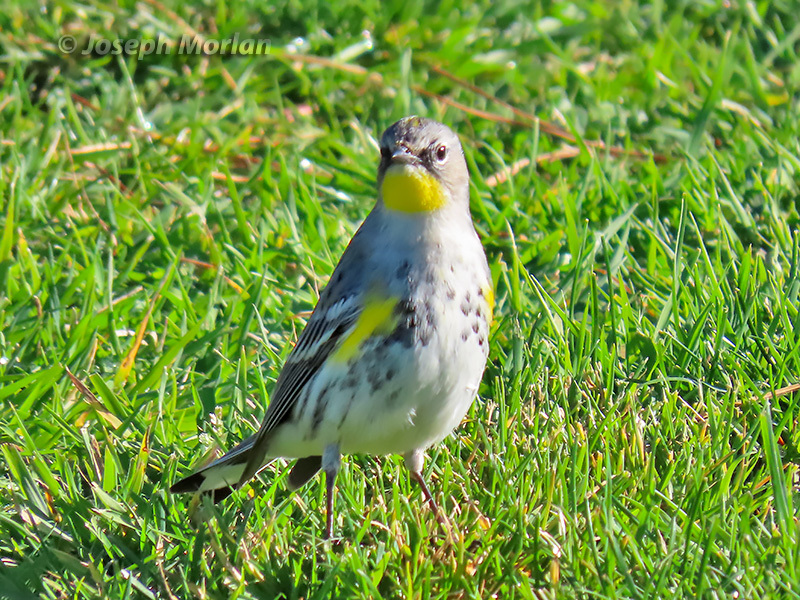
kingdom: Animalia
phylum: Chordata
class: Aves
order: Passeriformes
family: Parulidae
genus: Setophaga
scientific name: Setophaga coronata
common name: Myrtle warbler
